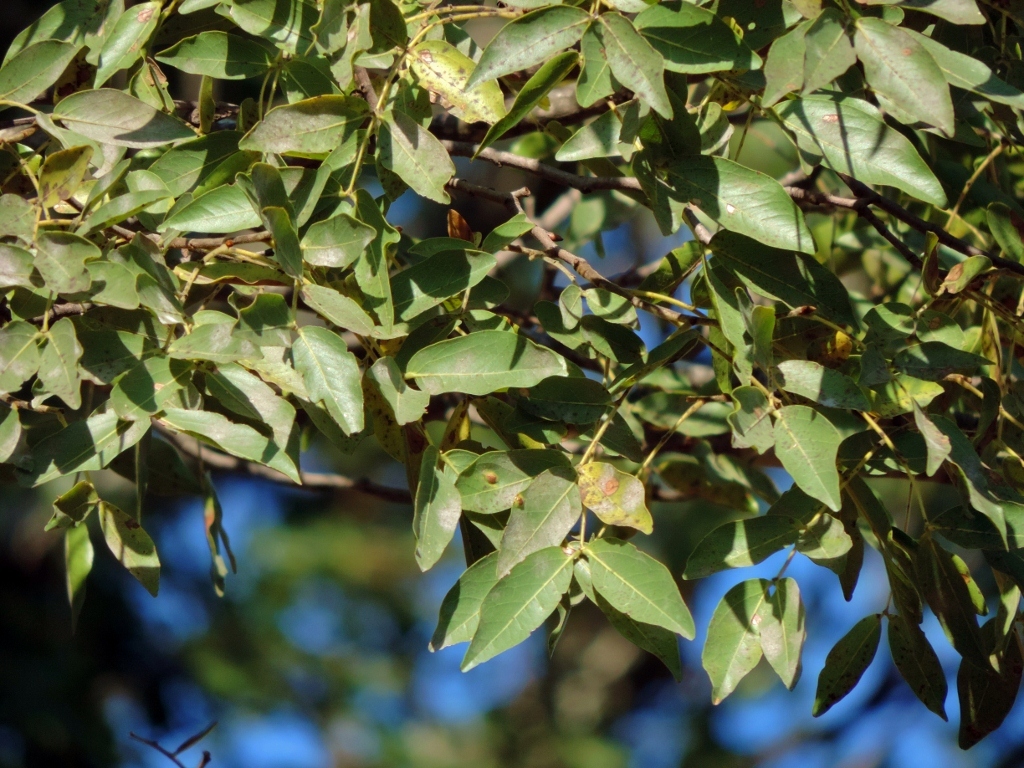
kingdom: Plantae
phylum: Tracheophyta
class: Magnoliopsida
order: Fabales
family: Fabaceae
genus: Brachystegia
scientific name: Brachystegia spiciformis
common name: Zebrawood
